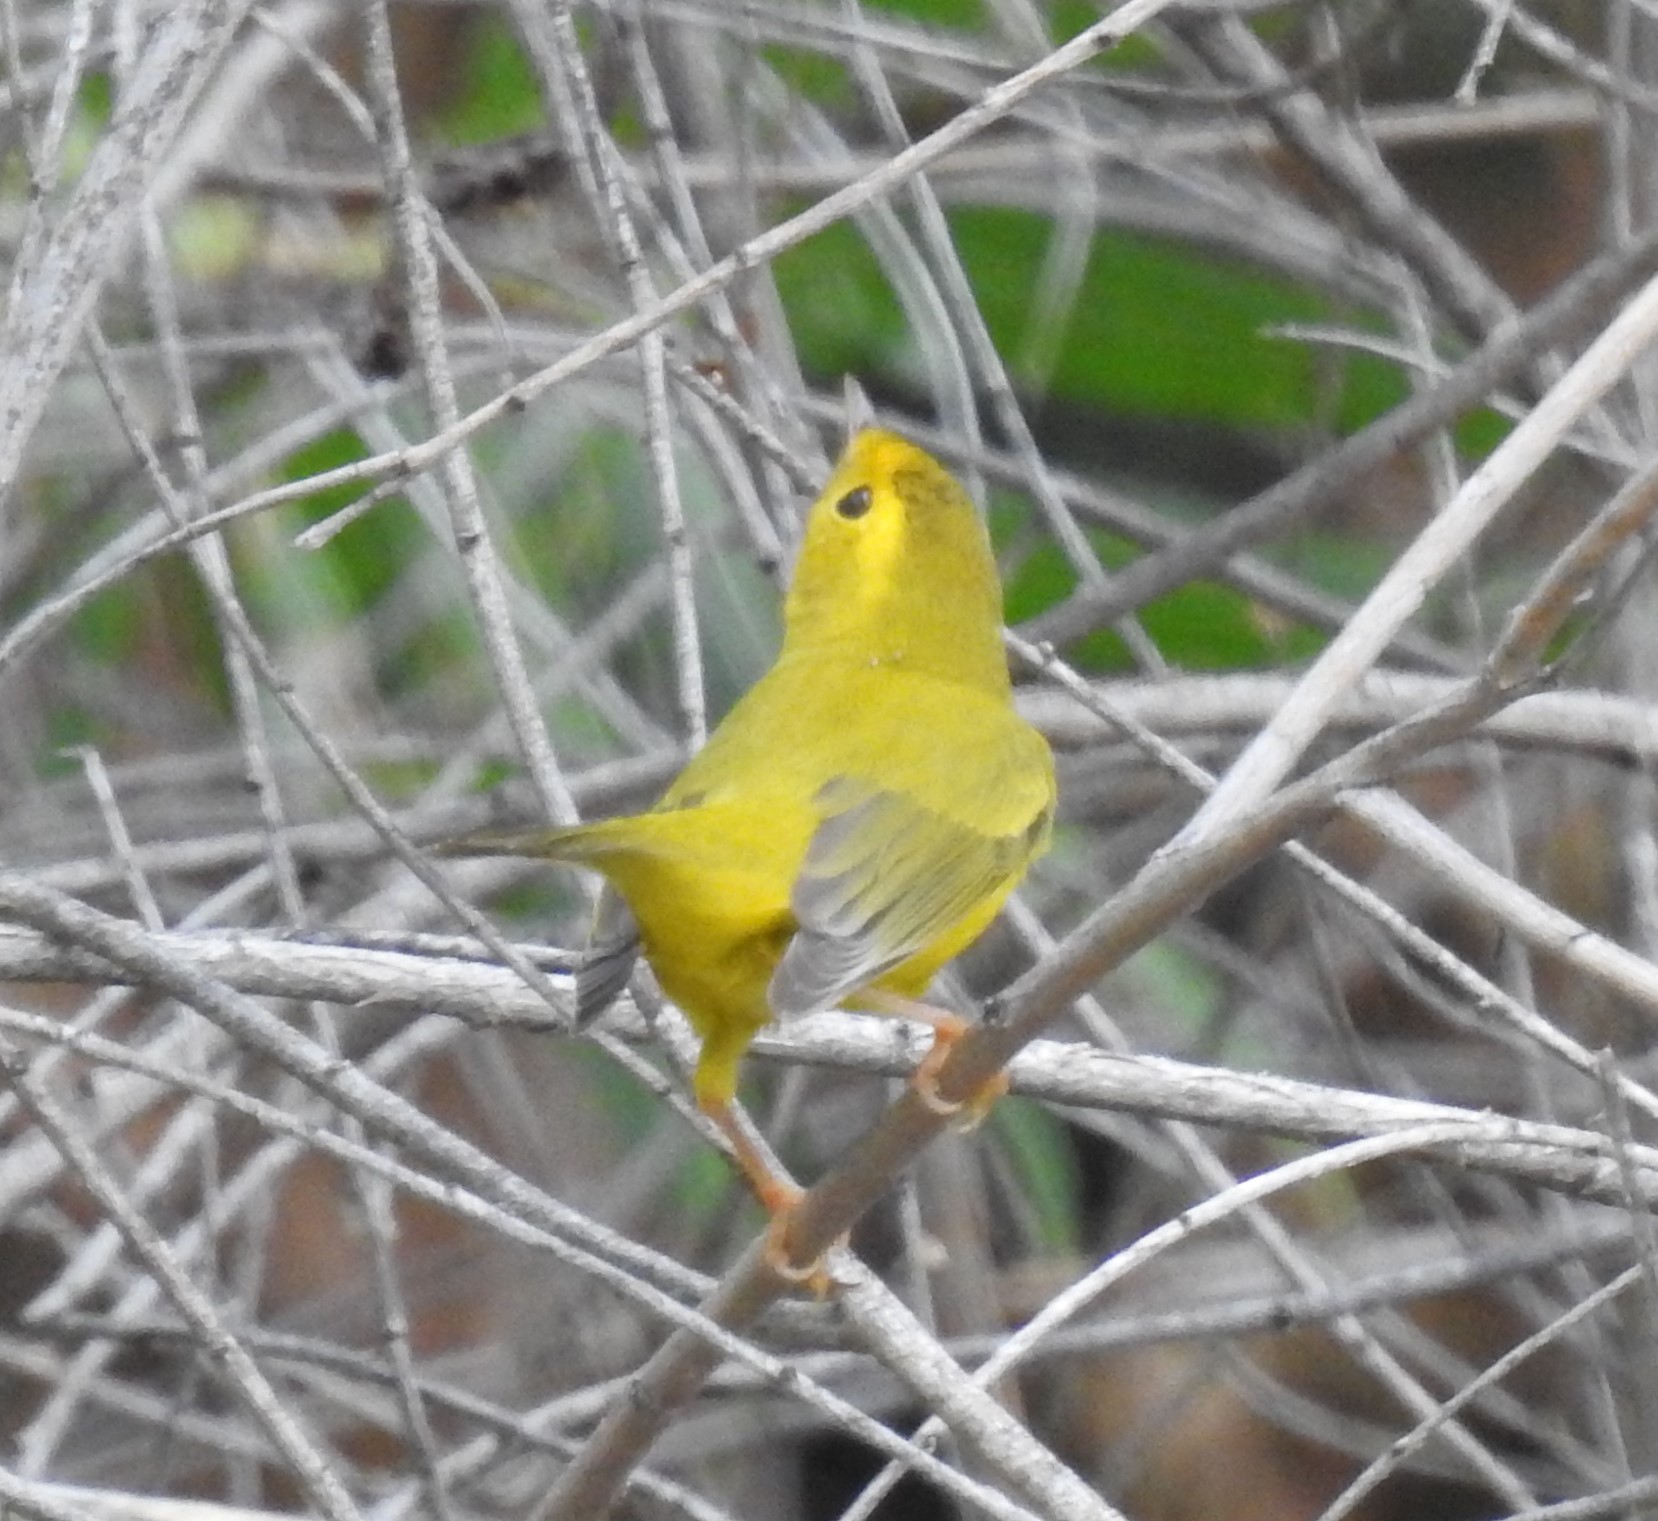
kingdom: Animalia
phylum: Chordata
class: Aves
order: Passeriformes
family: Parulidae
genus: Cardellina
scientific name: Cardellina pusilla
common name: Wilson's warbler
